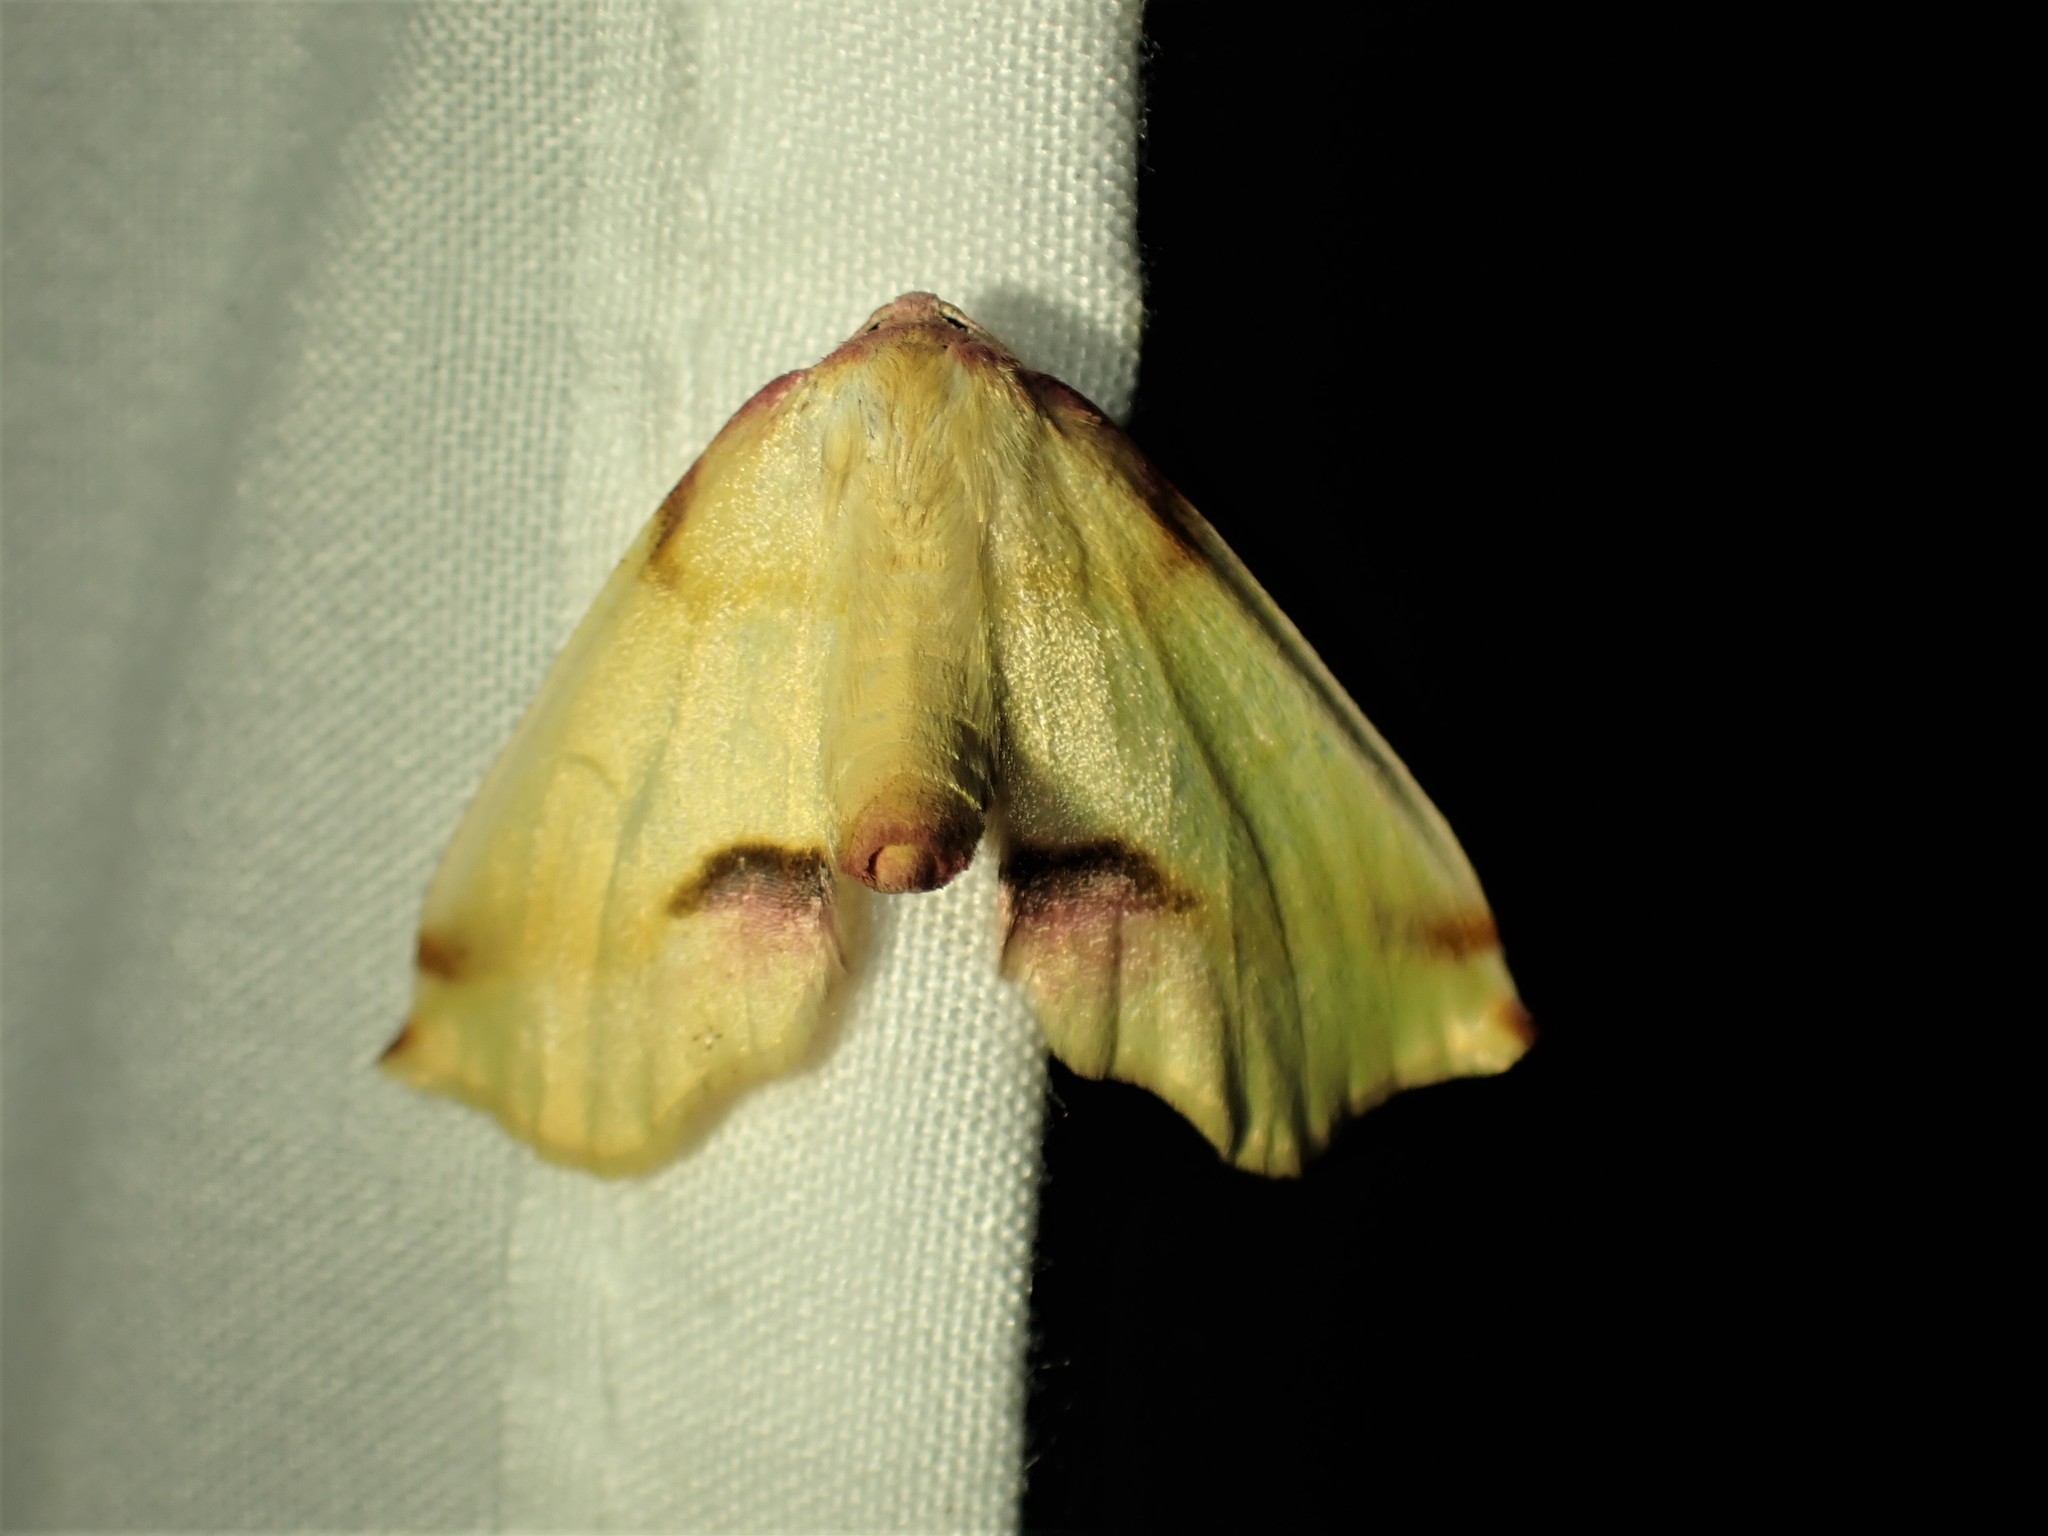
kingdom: Animalia
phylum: Arthropoda
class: Insecta
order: Lepidoptera
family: Geometridae
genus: Plagodis
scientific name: Plagodis serinaria
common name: Lemon plagodis
